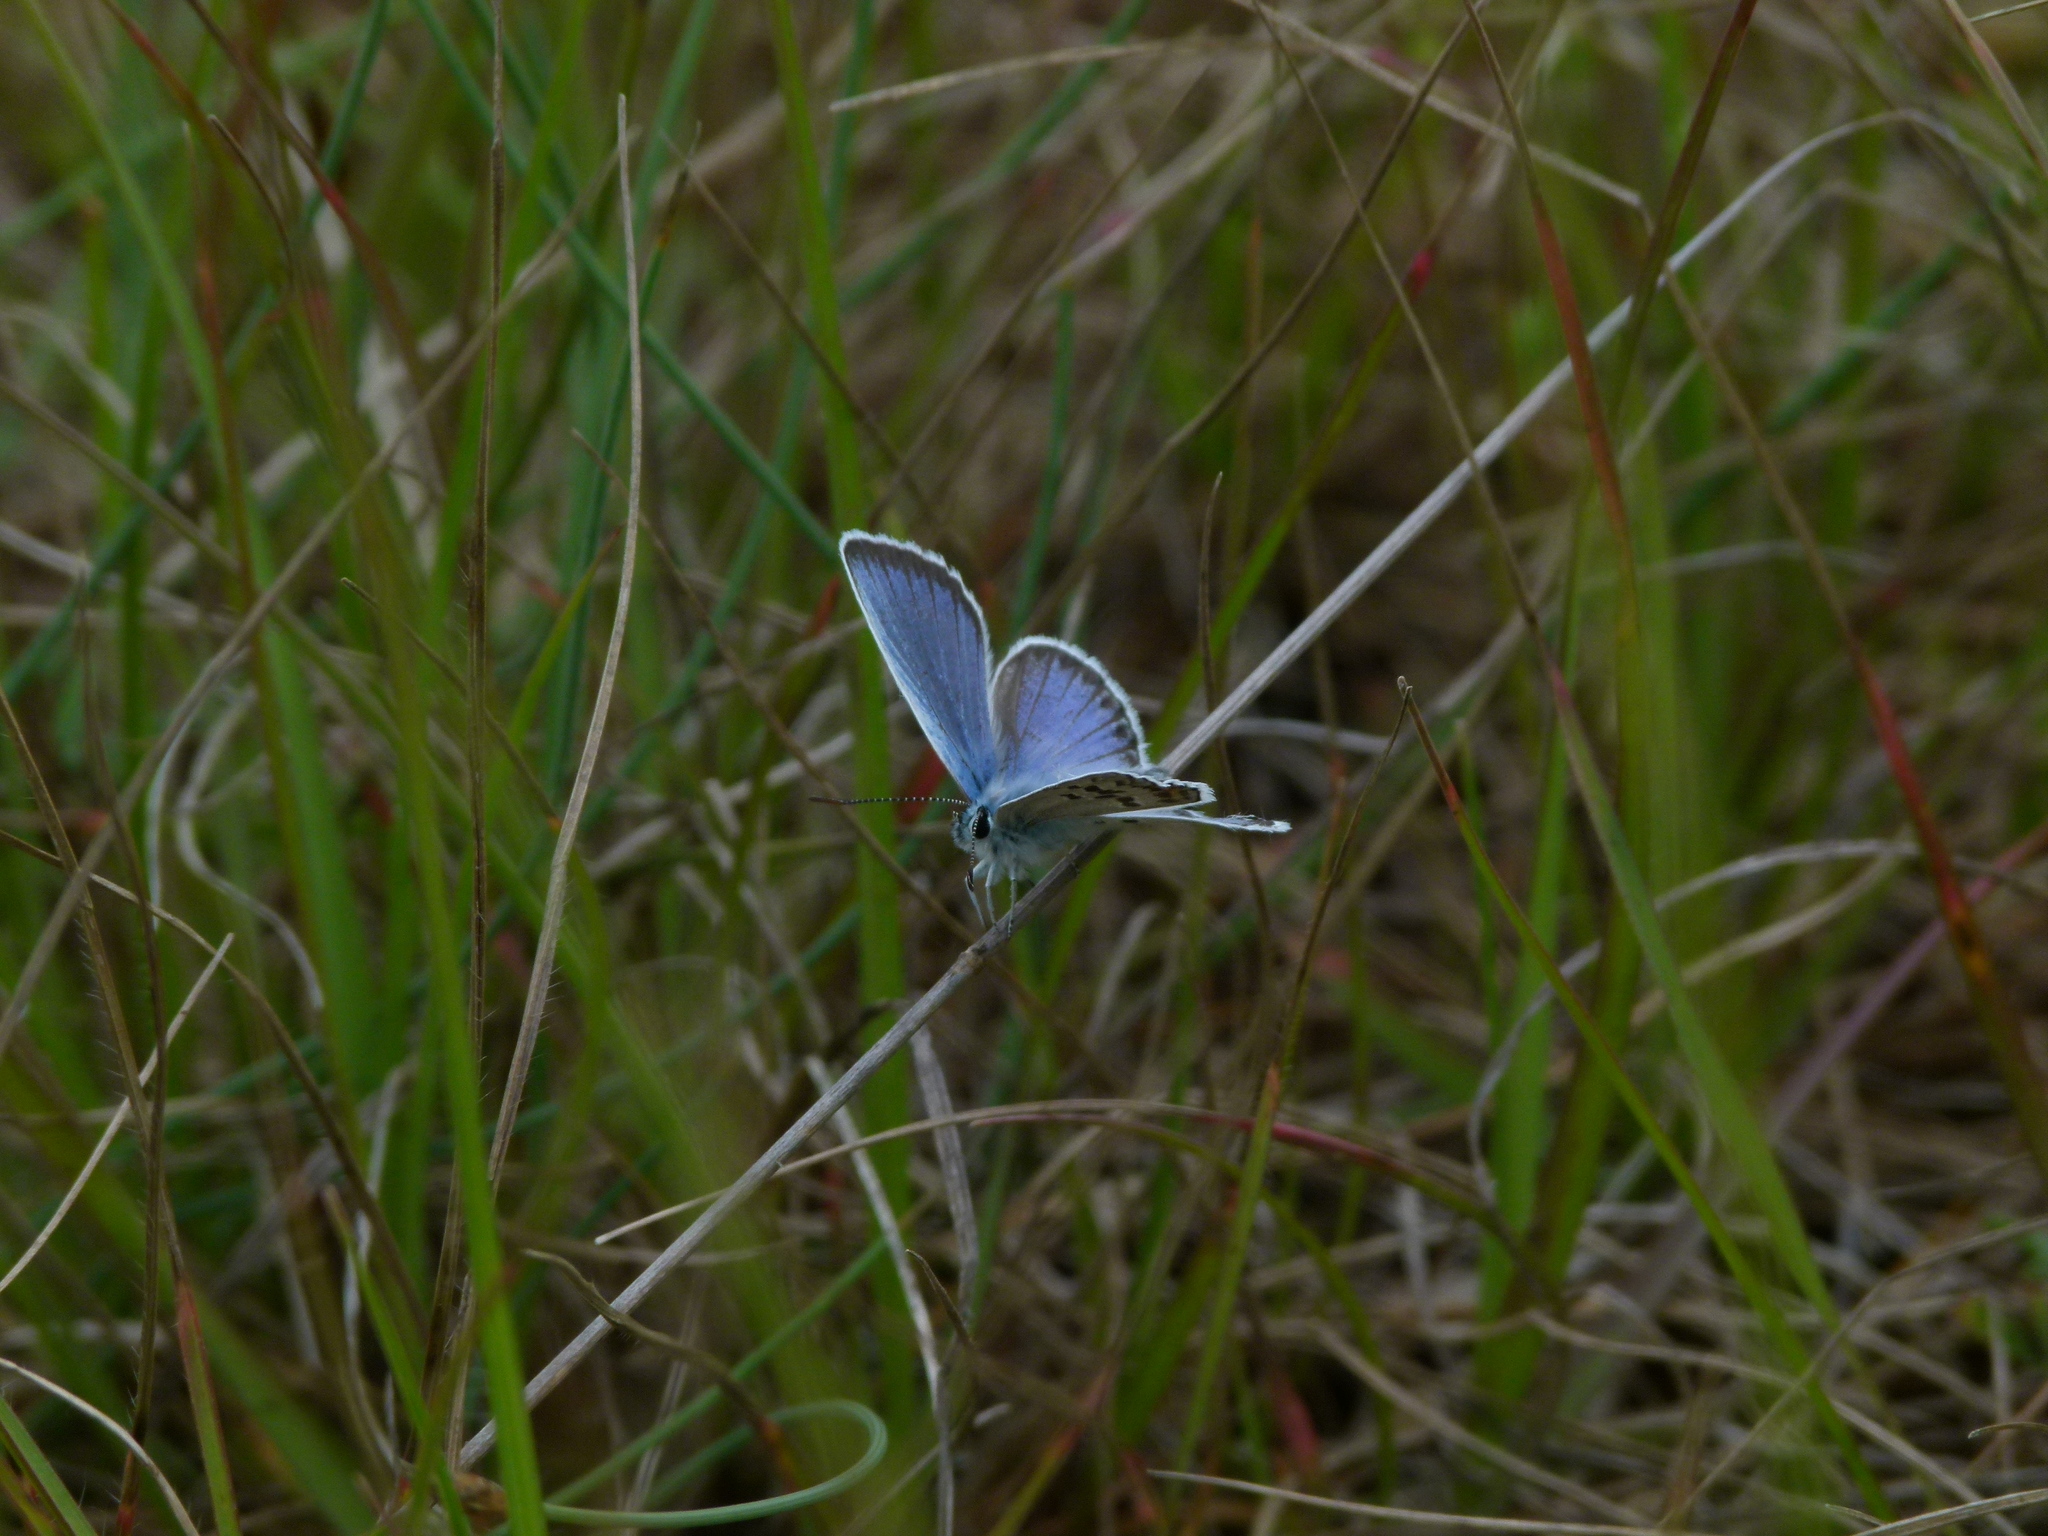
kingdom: Animalia
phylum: Arthropoda
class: Insecta
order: Lepidoptera
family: Lycaenidae
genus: Plebejus
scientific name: Plebejus argus
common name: Silver-studded blue
